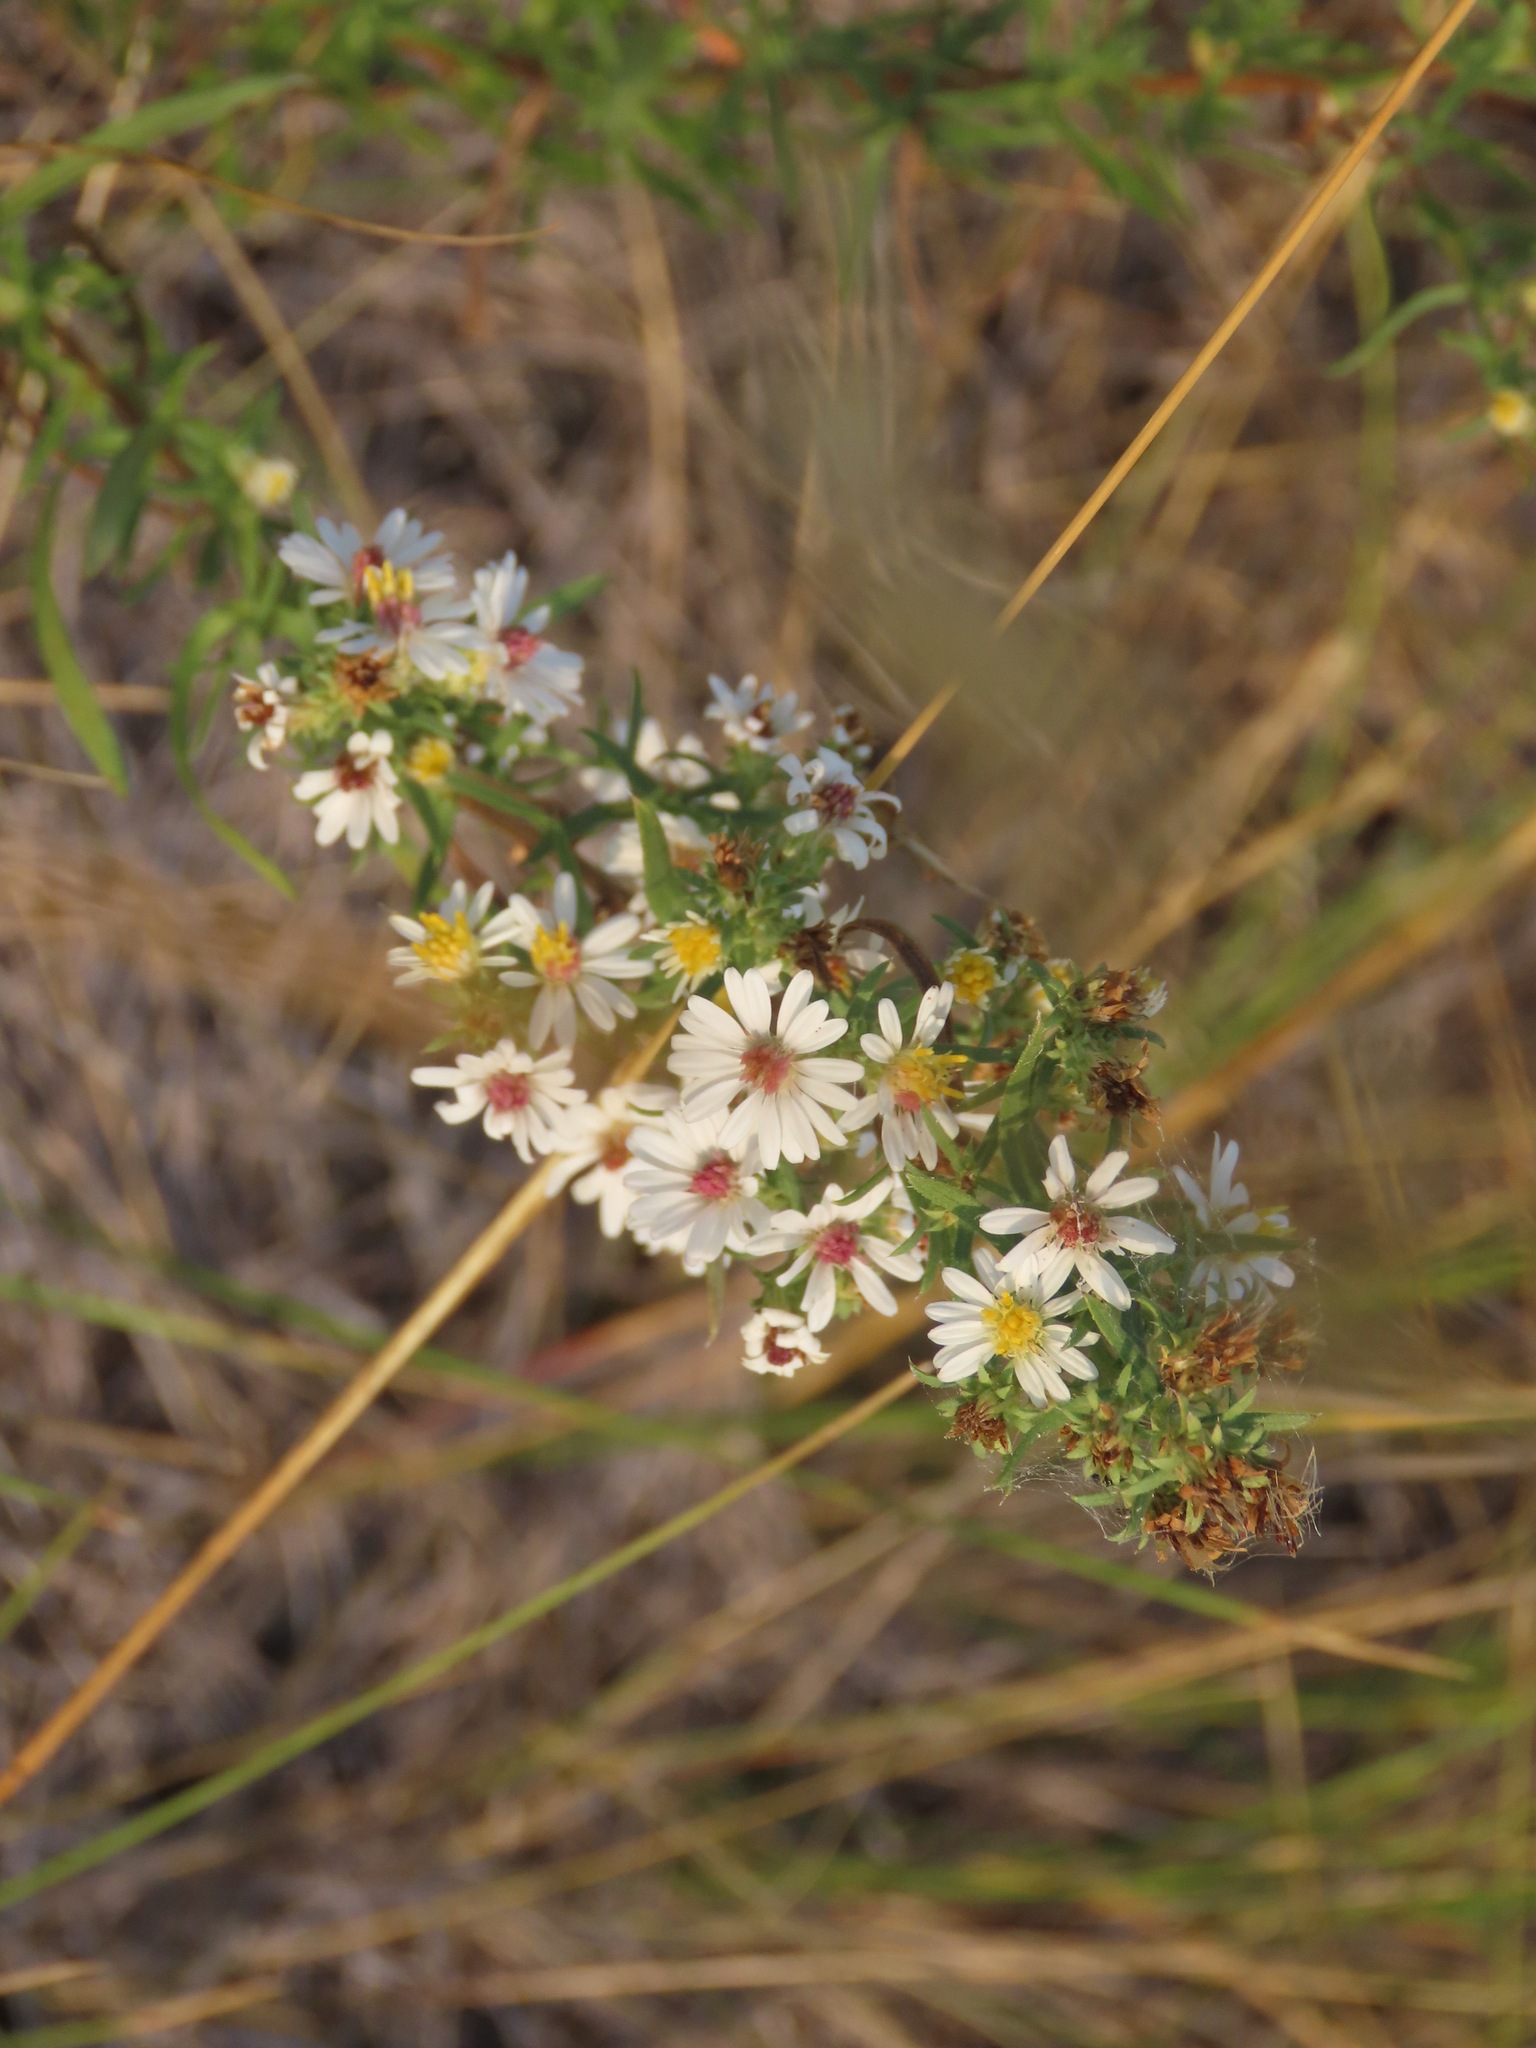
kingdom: Plantae
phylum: Tracheophyta
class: Magnoliopsida
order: Asterales
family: Asteraceae
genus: Symphyotrichum
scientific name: Symphyotrichum ericoides
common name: Heath aster
